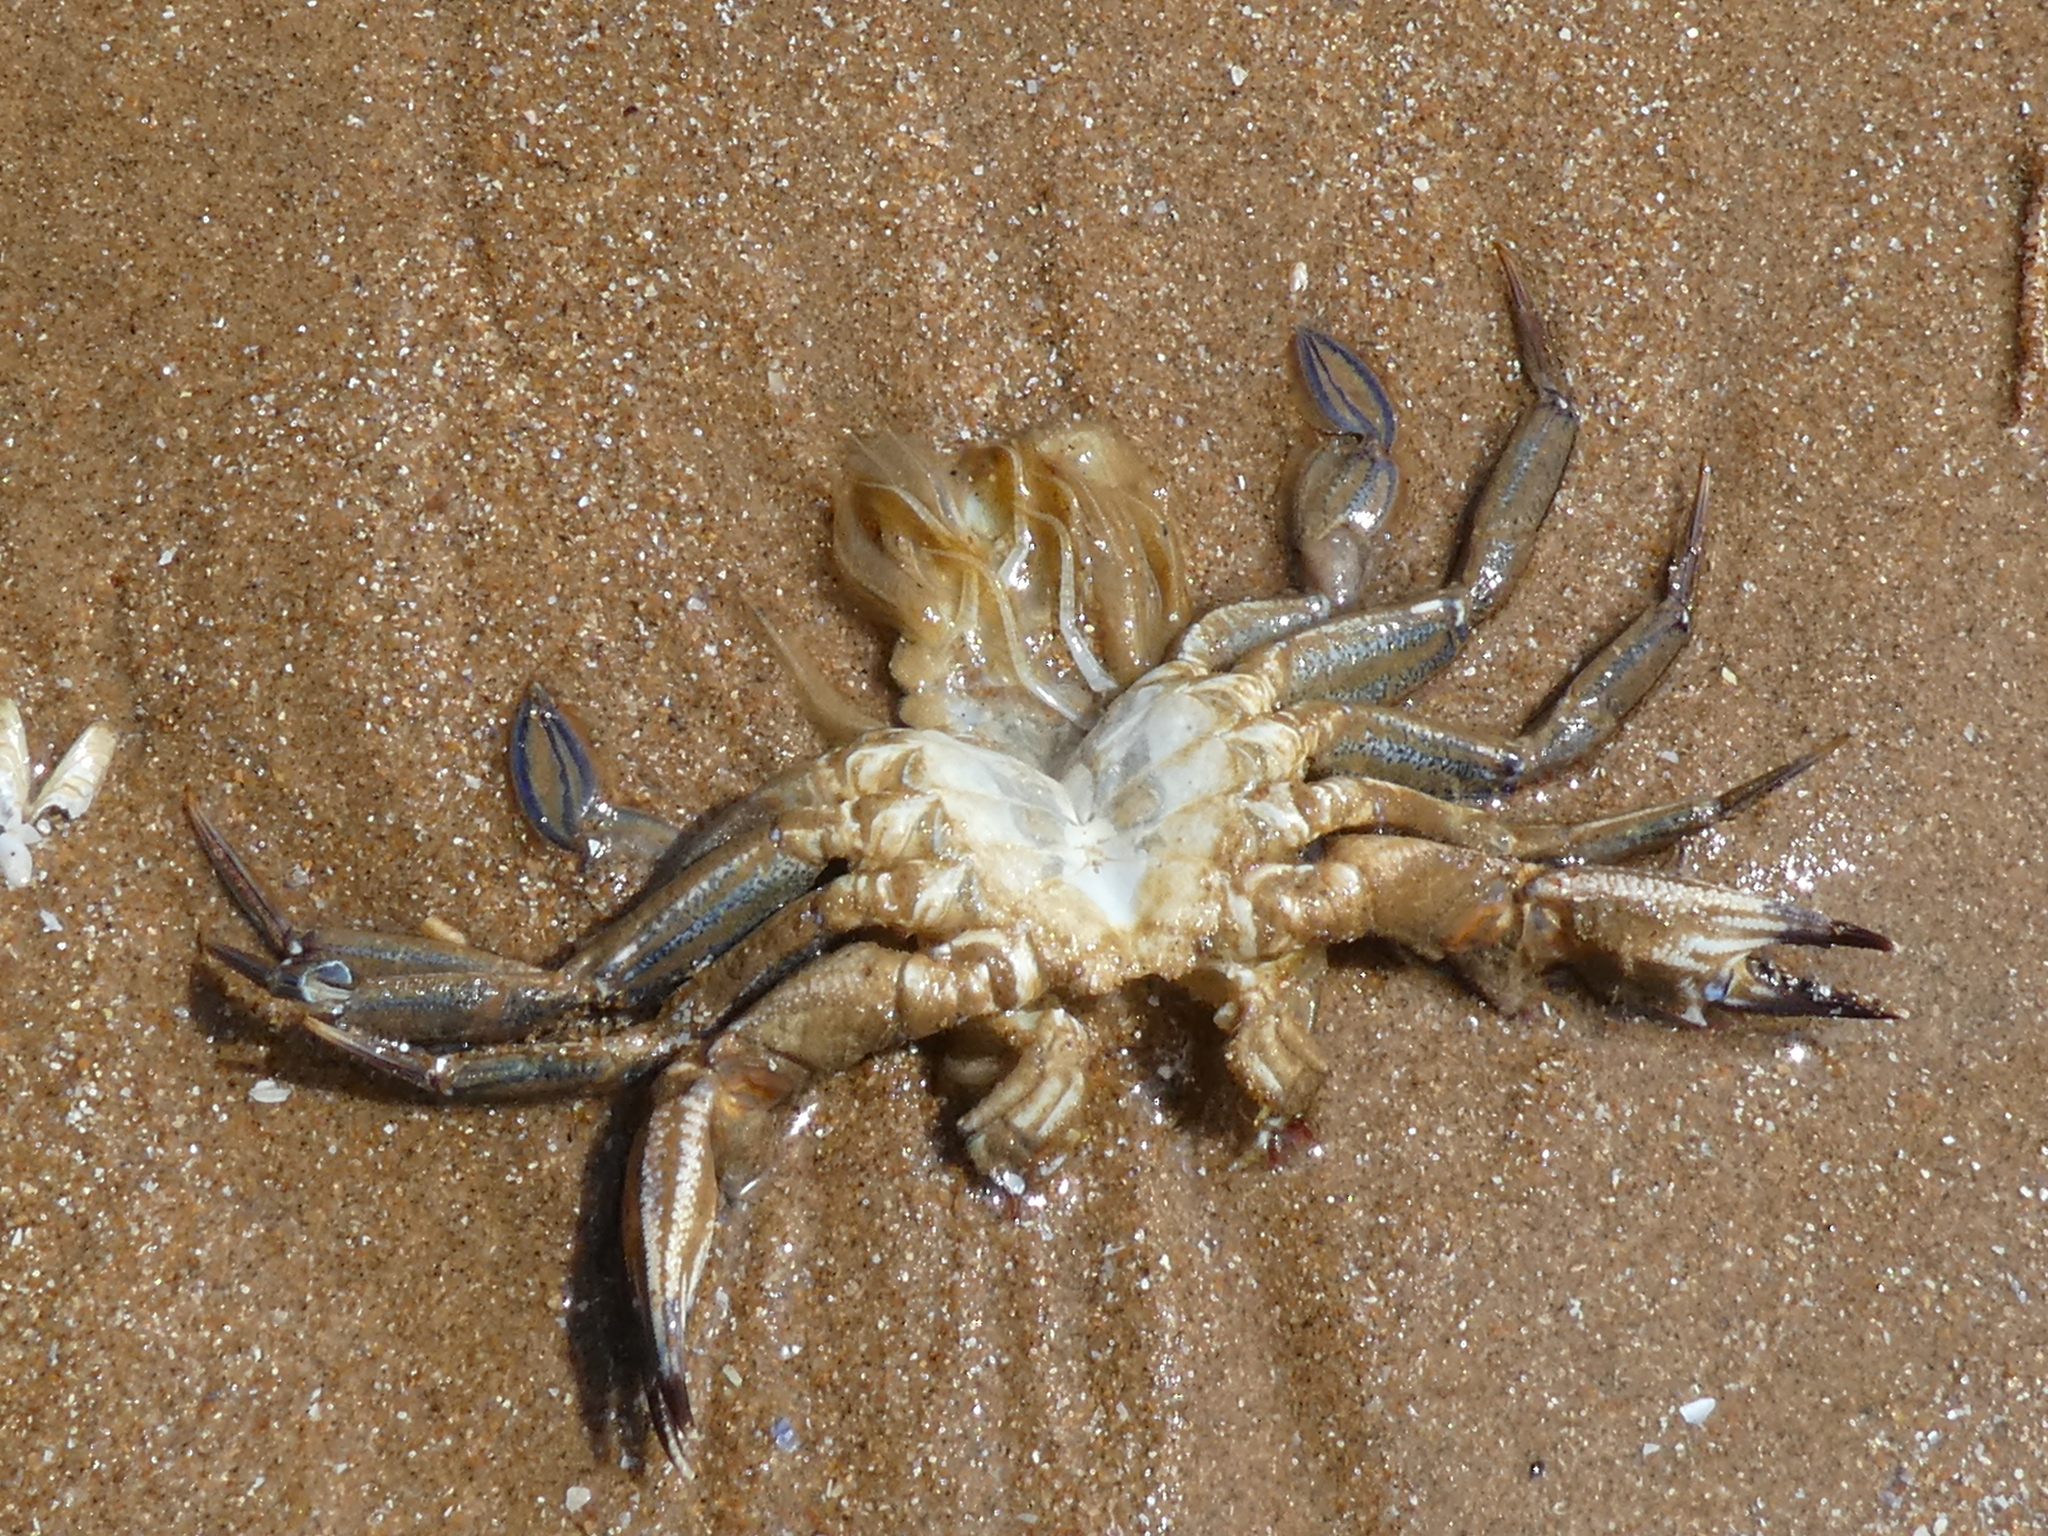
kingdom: Animalia
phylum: Arthropoda
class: Malacostraca
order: Decapoda
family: Polybiidae
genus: Necora
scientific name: Necora puber
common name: Velvet swimming crab
